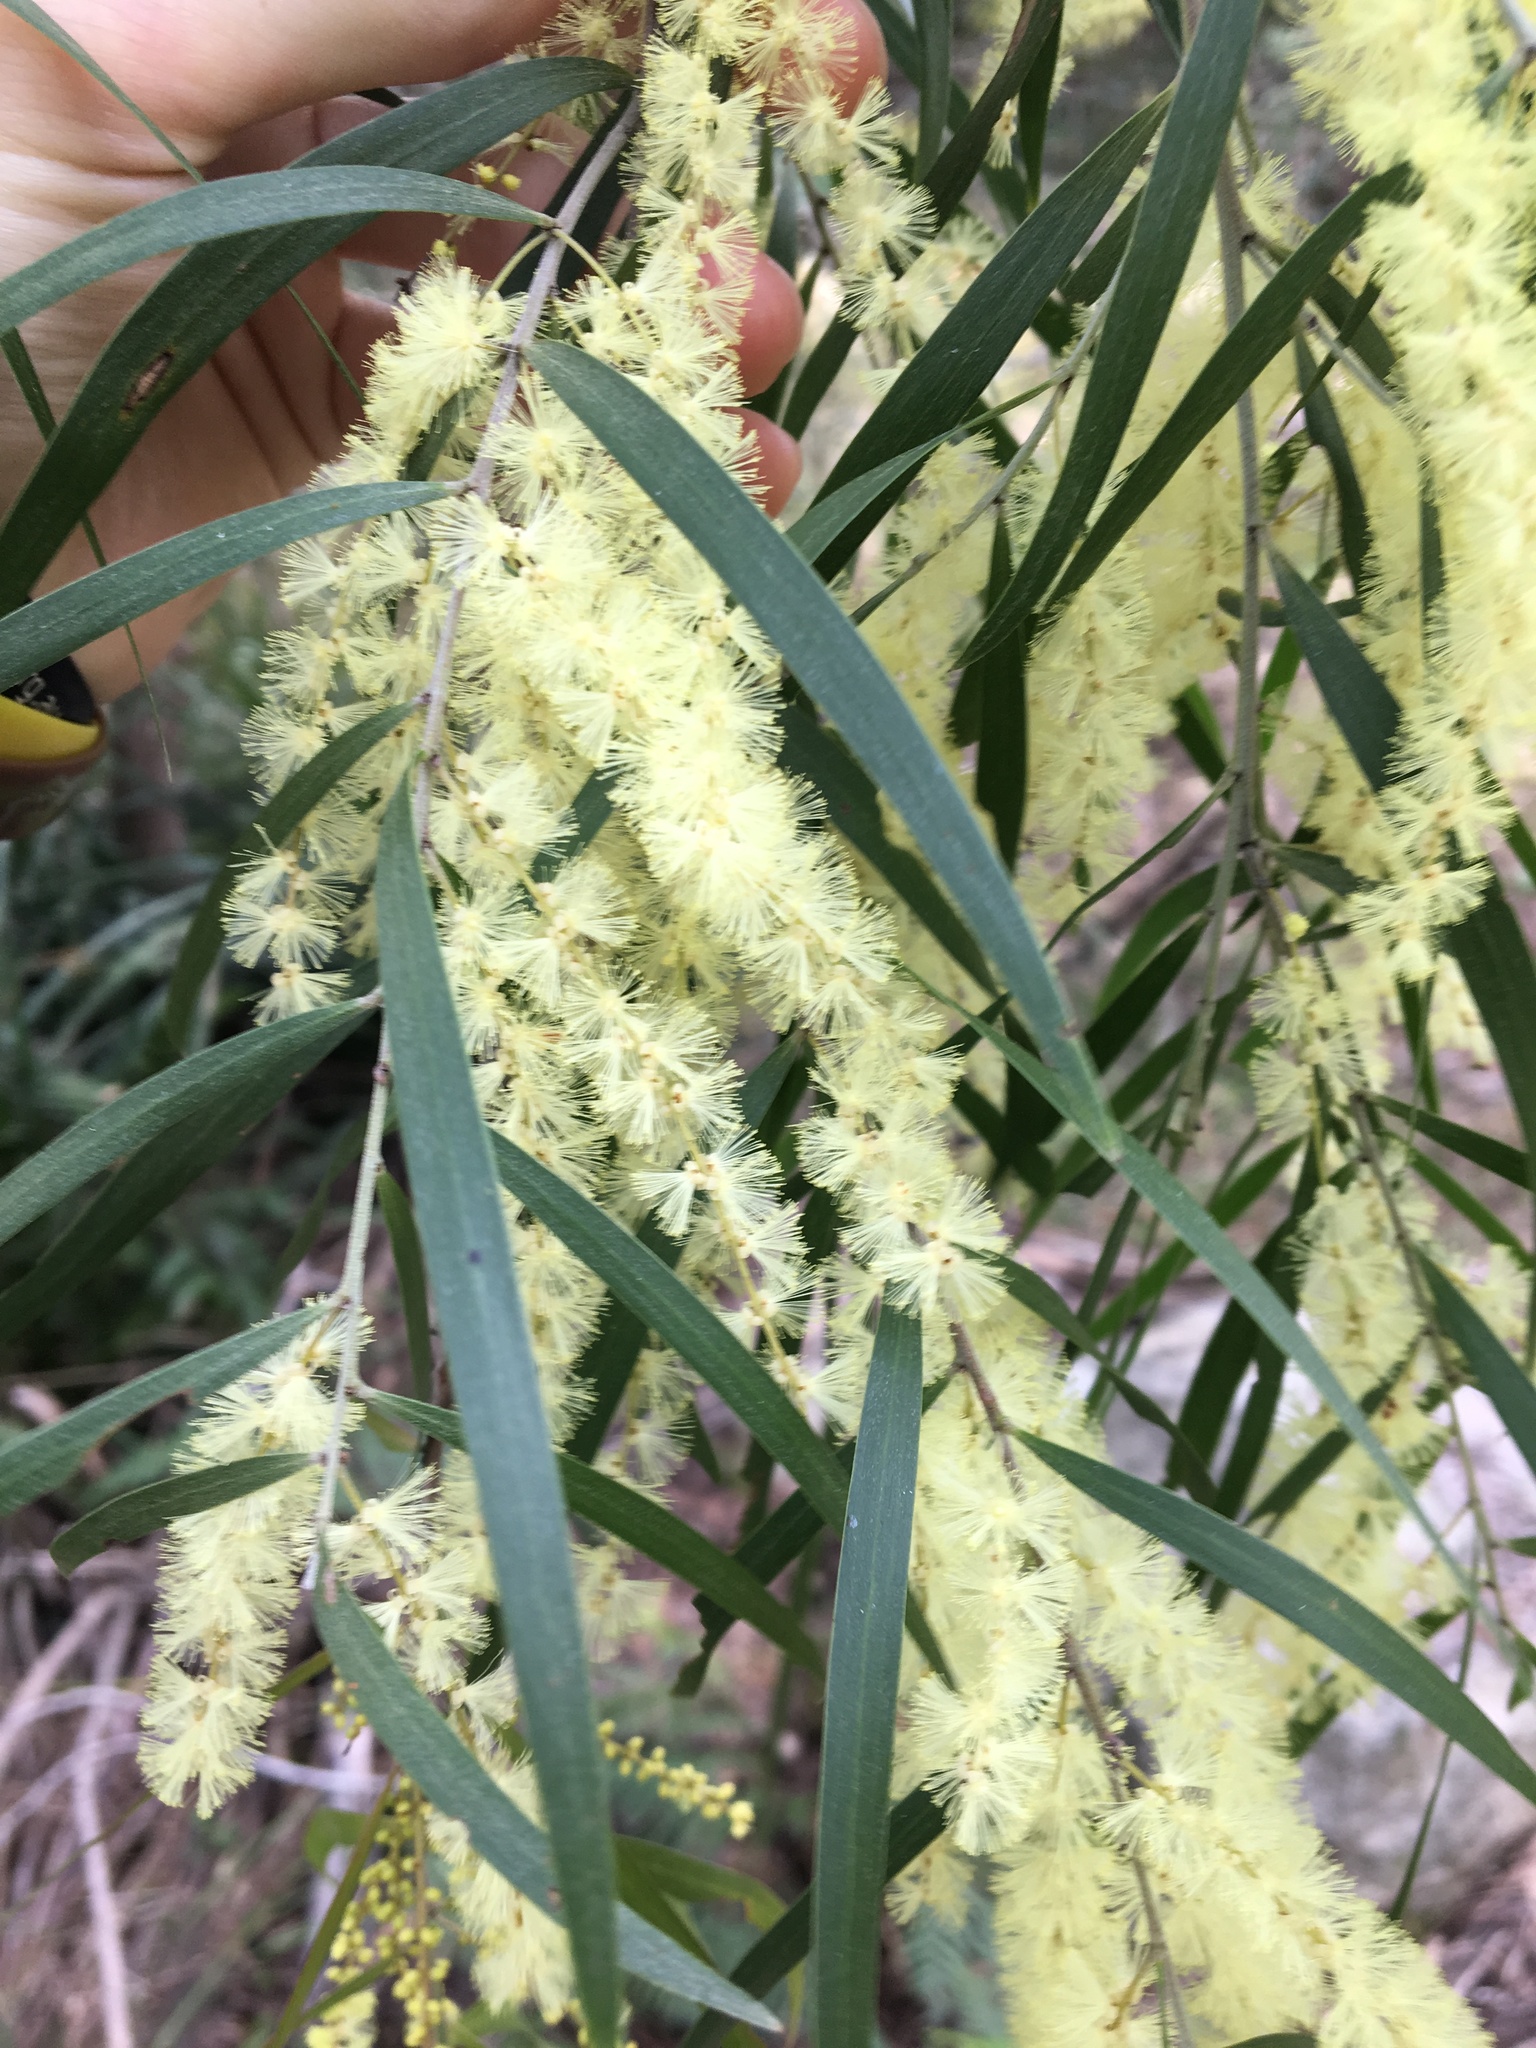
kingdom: Plantae
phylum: Tracheophyta
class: Magnoliopsida
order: Fabales
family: Fabaceae
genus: Acacia
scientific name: Acacia floribunda
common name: Gossamer wattle
